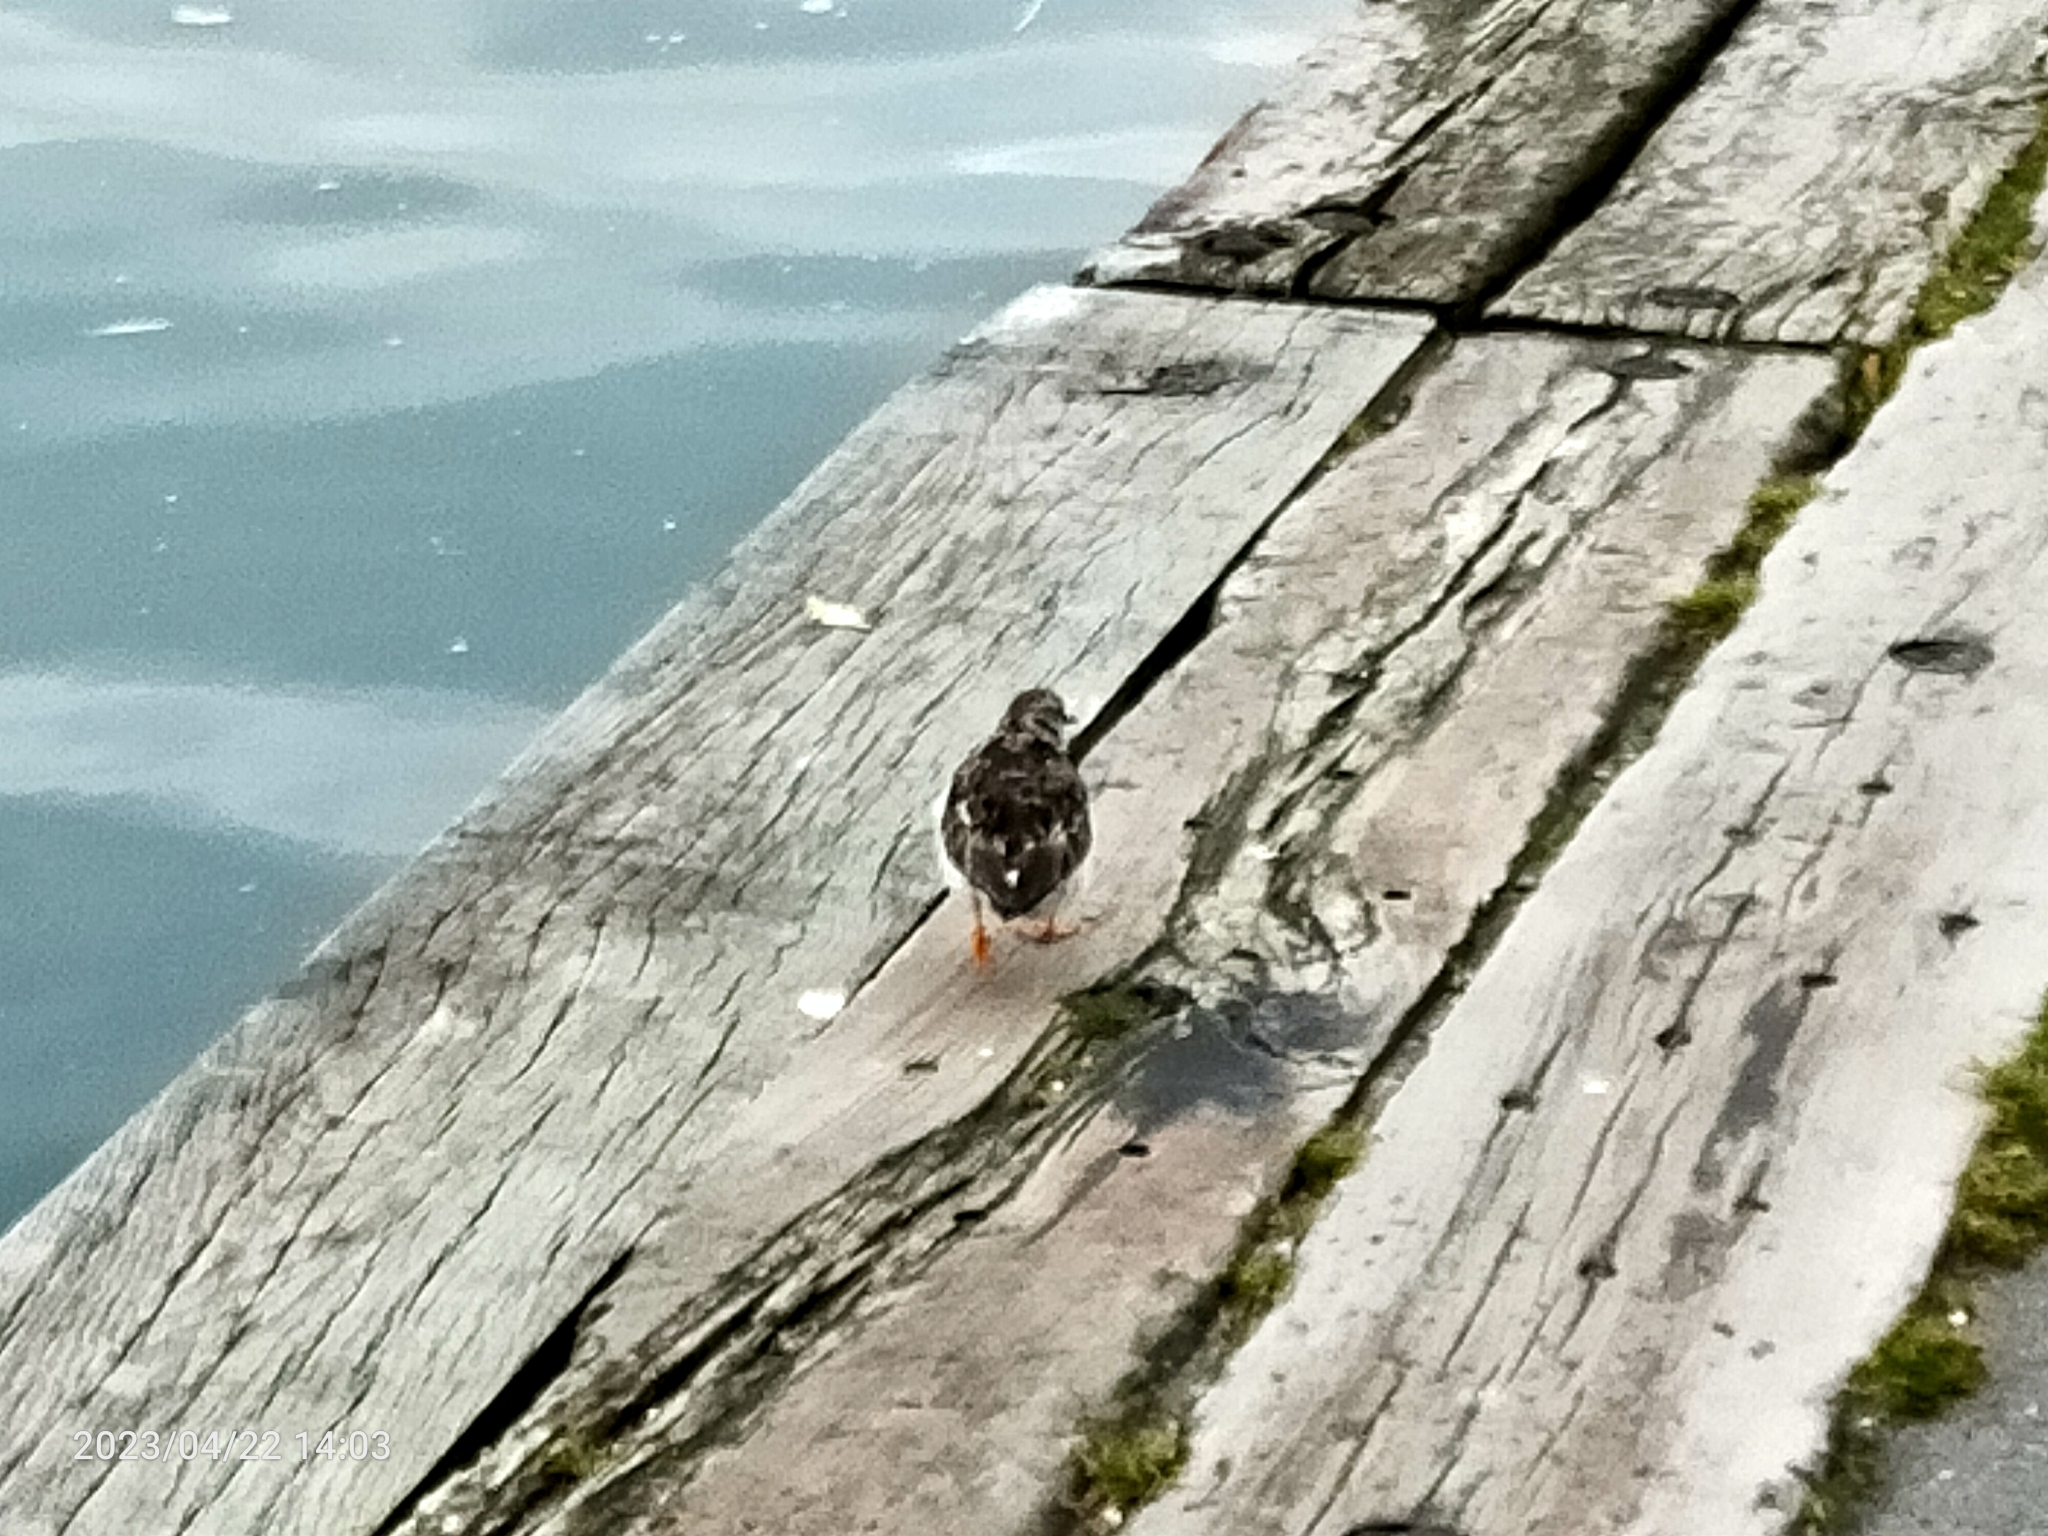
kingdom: Animalia
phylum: Chordata
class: Aves
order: Charadriiformes
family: Scolopacidae
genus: Arenaria
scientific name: Arenaria interpres
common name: Ruddy turnstone
